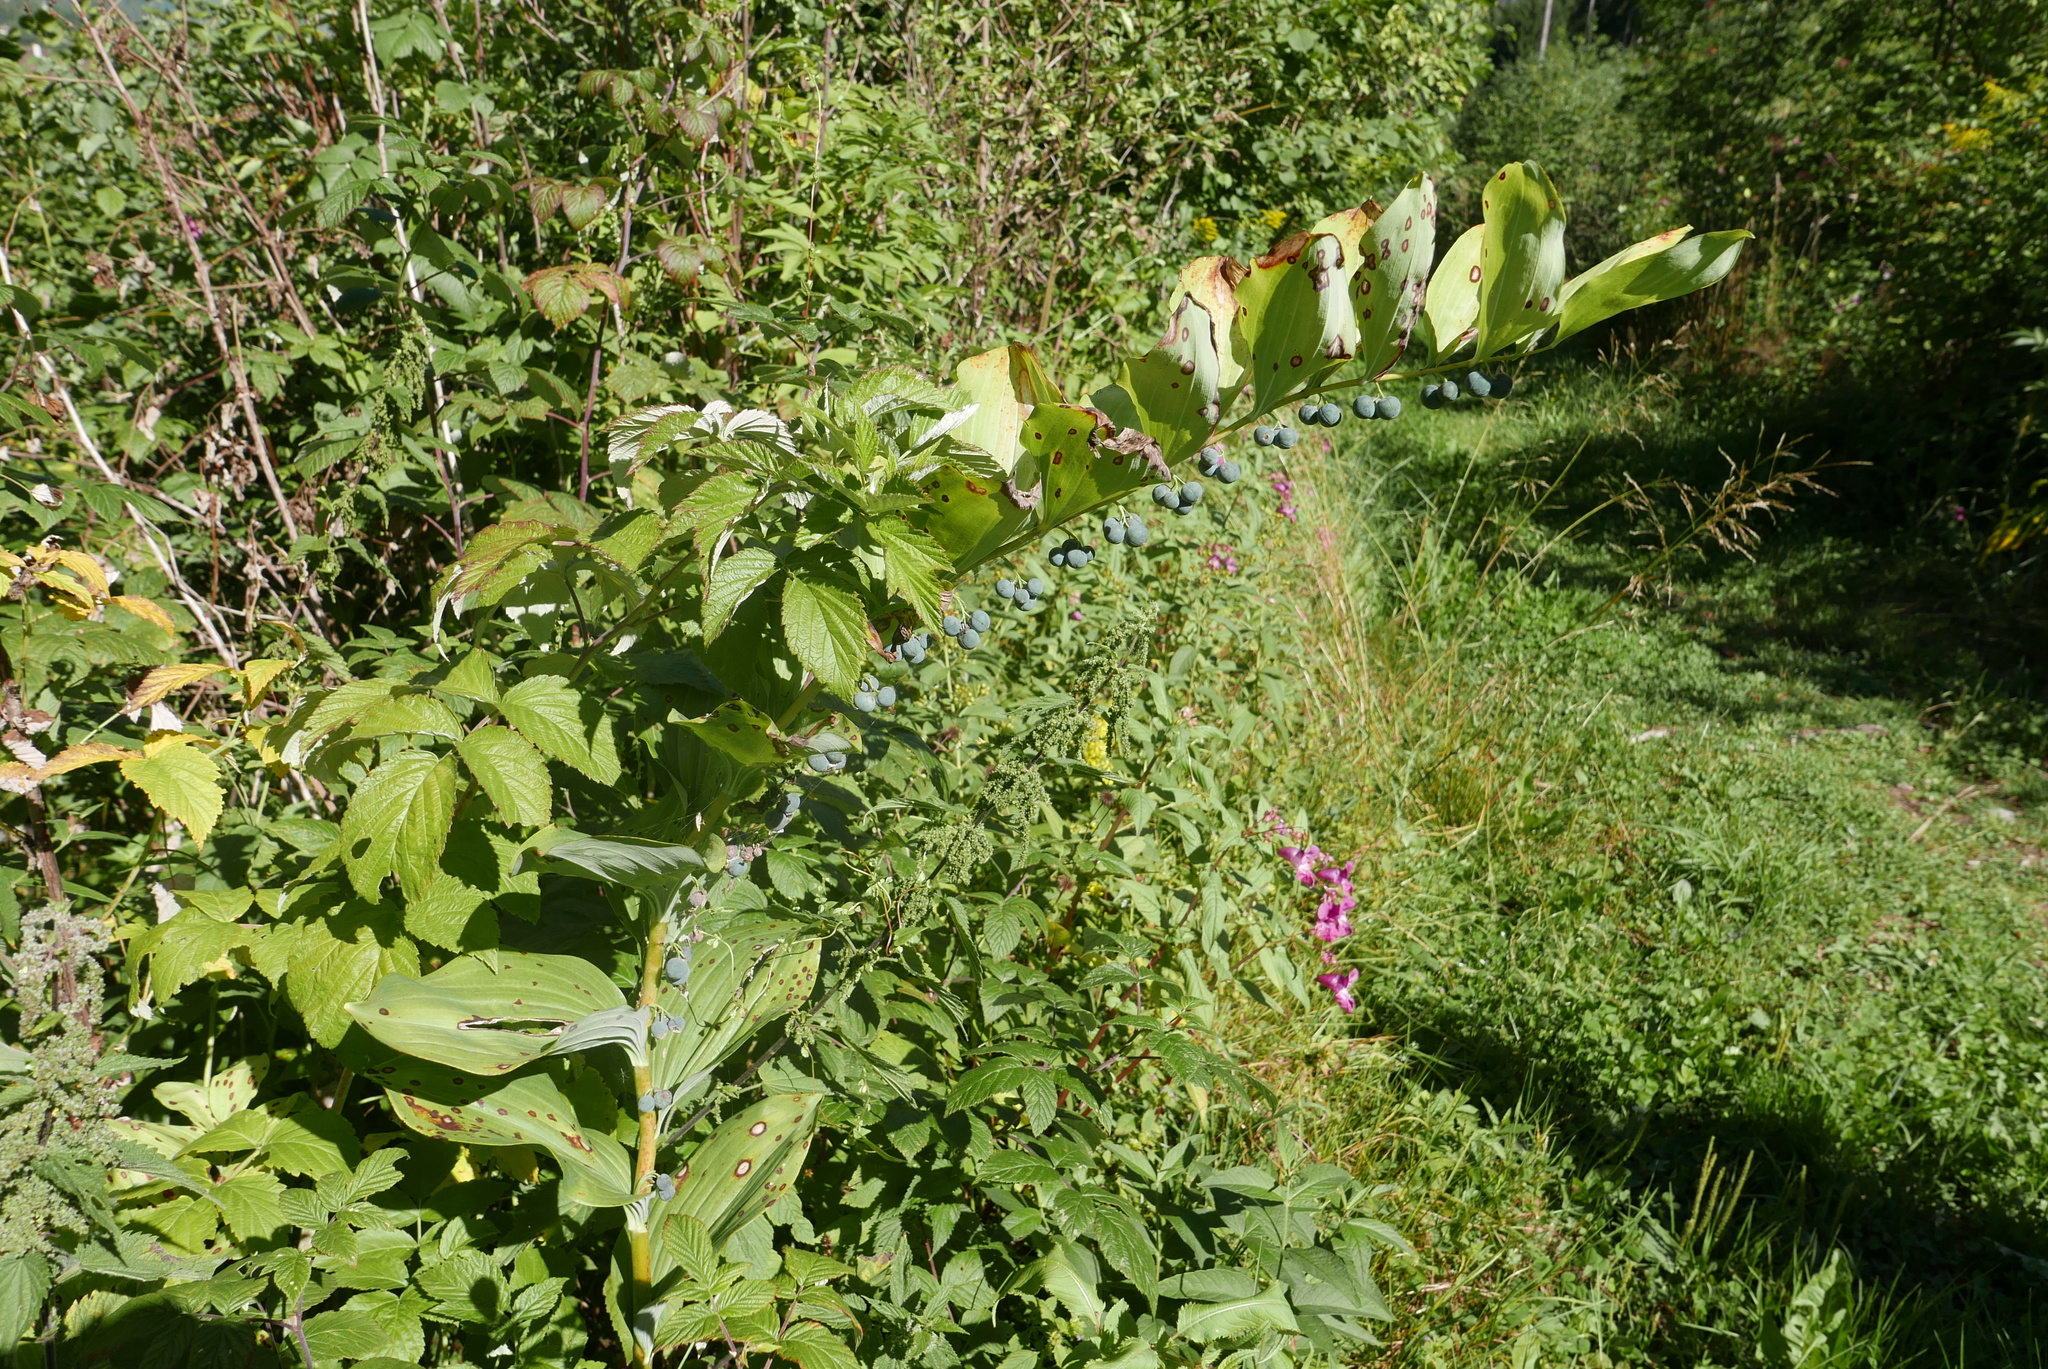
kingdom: Plantae
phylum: Tracheophyta
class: Liliopsida
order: Asparagales
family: Asparagaceae
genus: Polygonatum
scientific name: Polygonatum multiflorum
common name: Solomon's-seal
